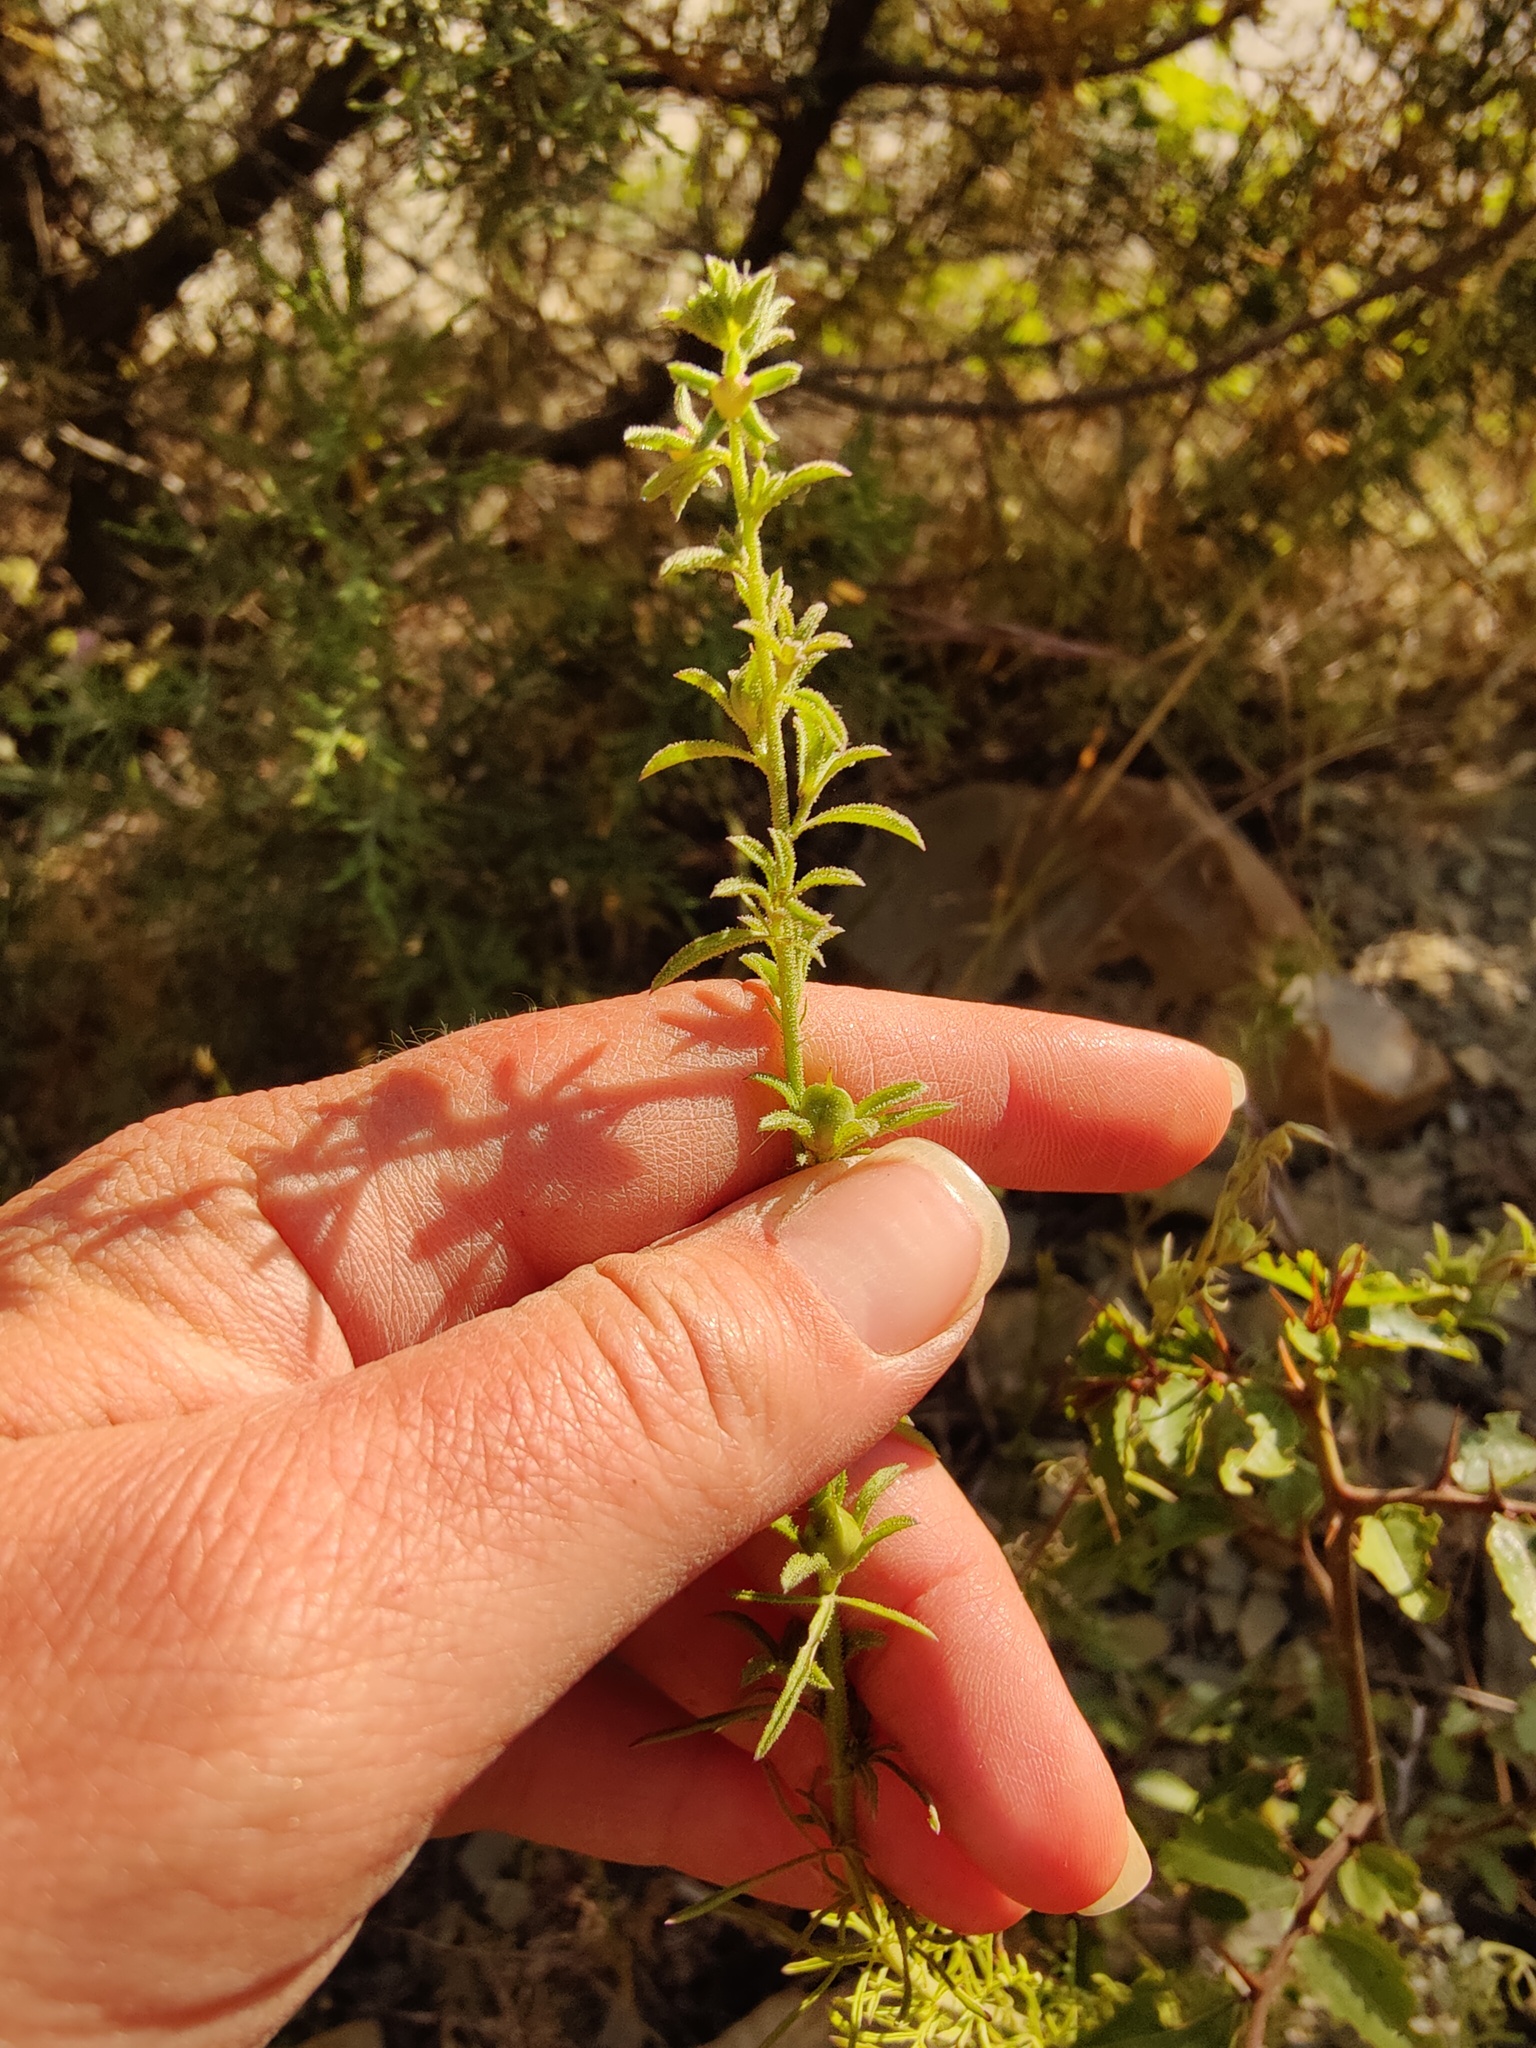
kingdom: Plantae
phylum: Tracheophyta
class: Magnoliopsida
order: Lamiales
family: Scrophulariaceae
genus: Verbascum
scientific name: Verbascum orientale
